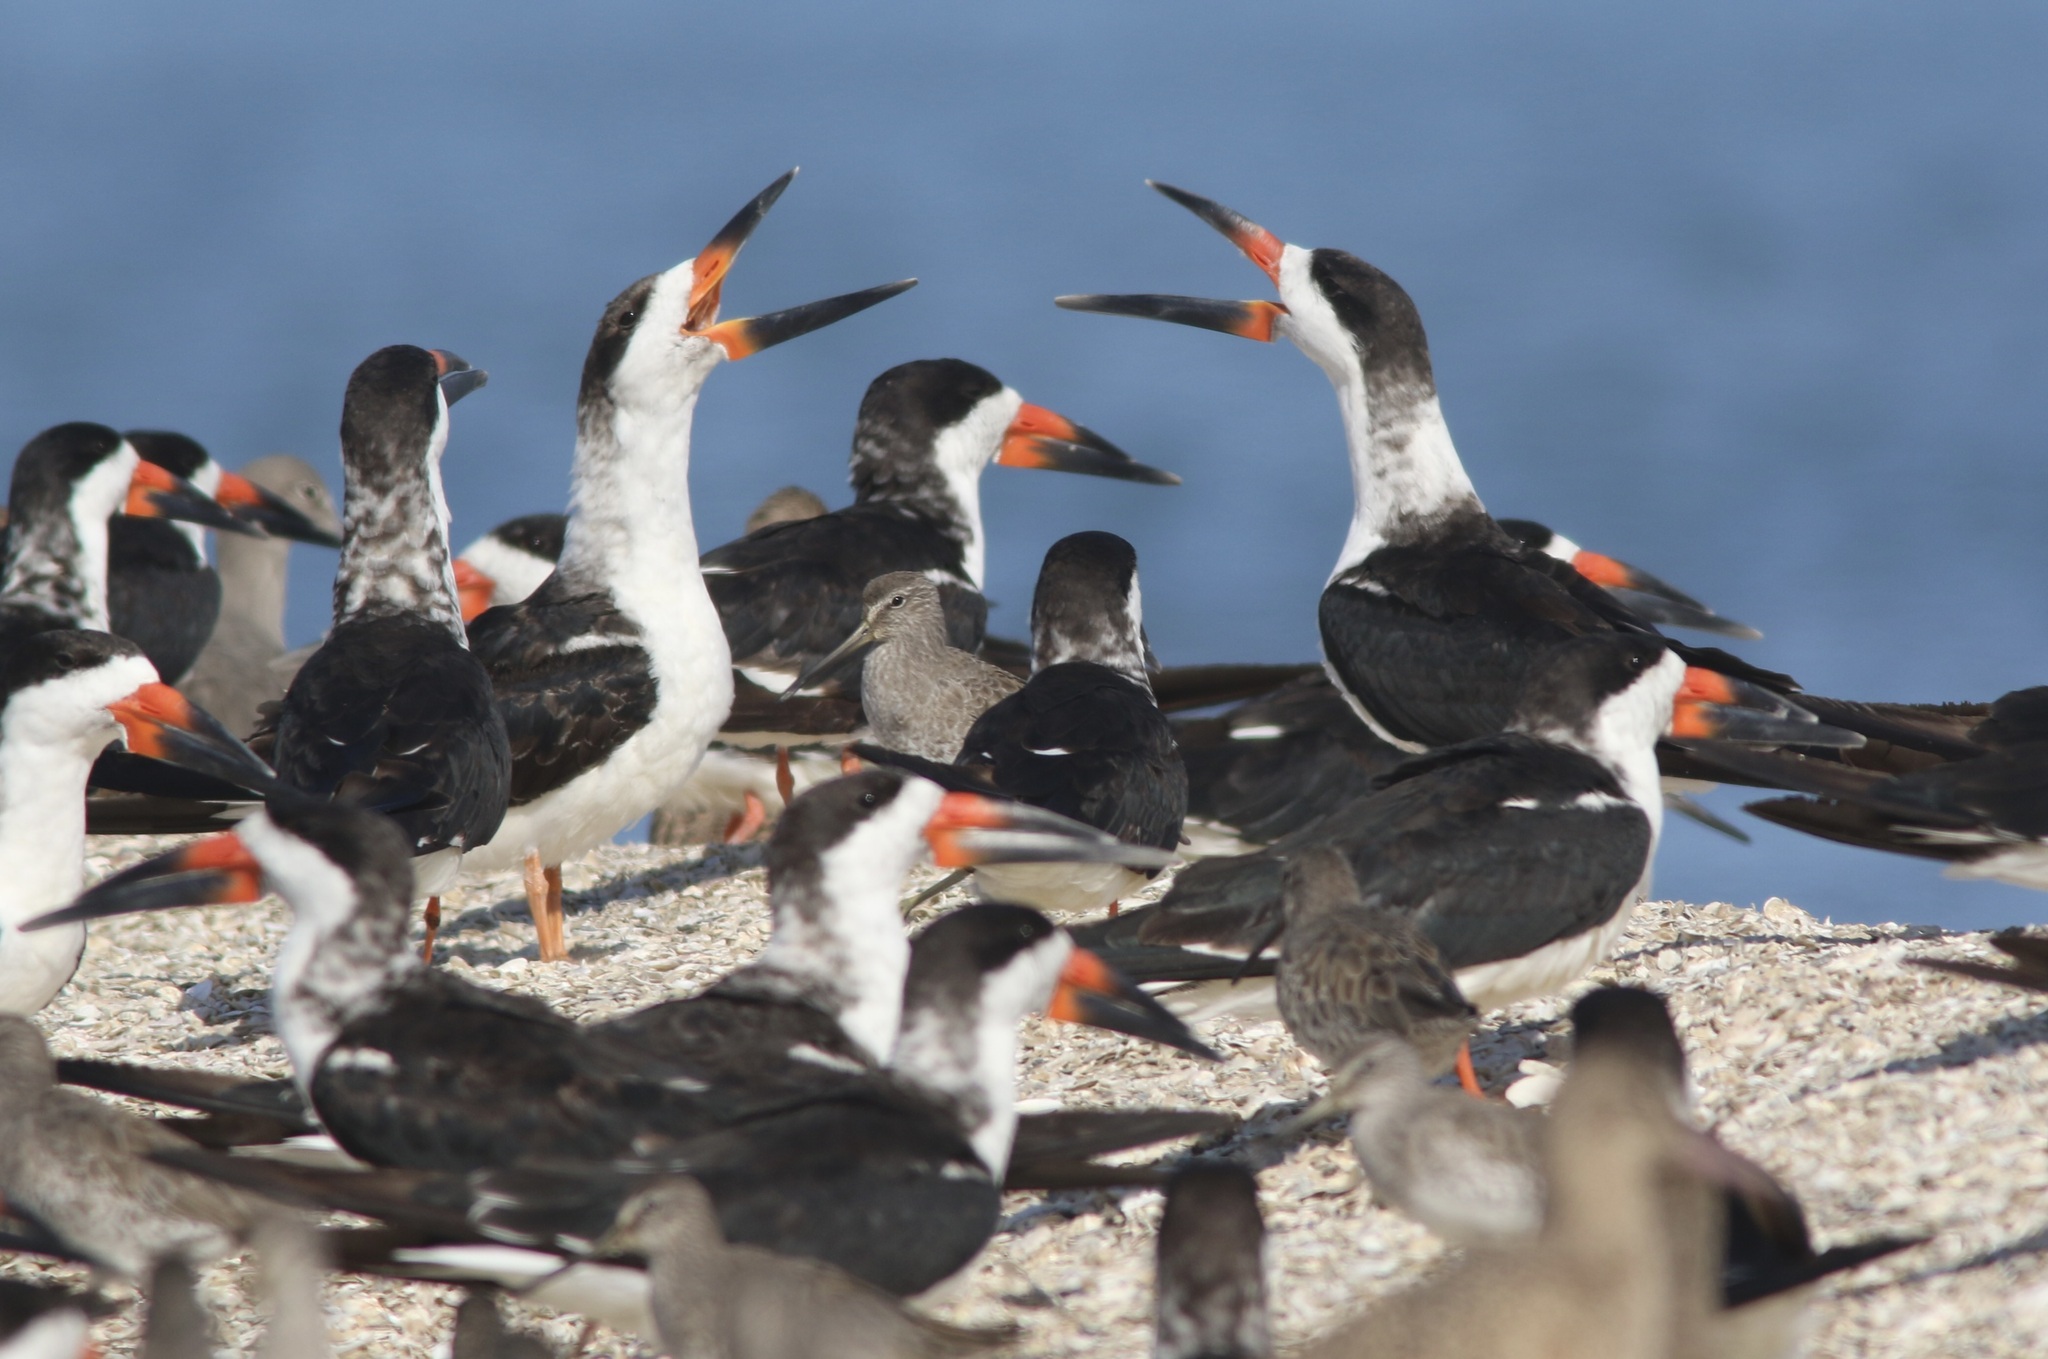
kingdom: Animalia
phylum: Chordata
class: Aves
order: Charadriiformes
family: Laridae
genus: Rynchops
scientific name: Rynchops niger
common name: Black skimmer
